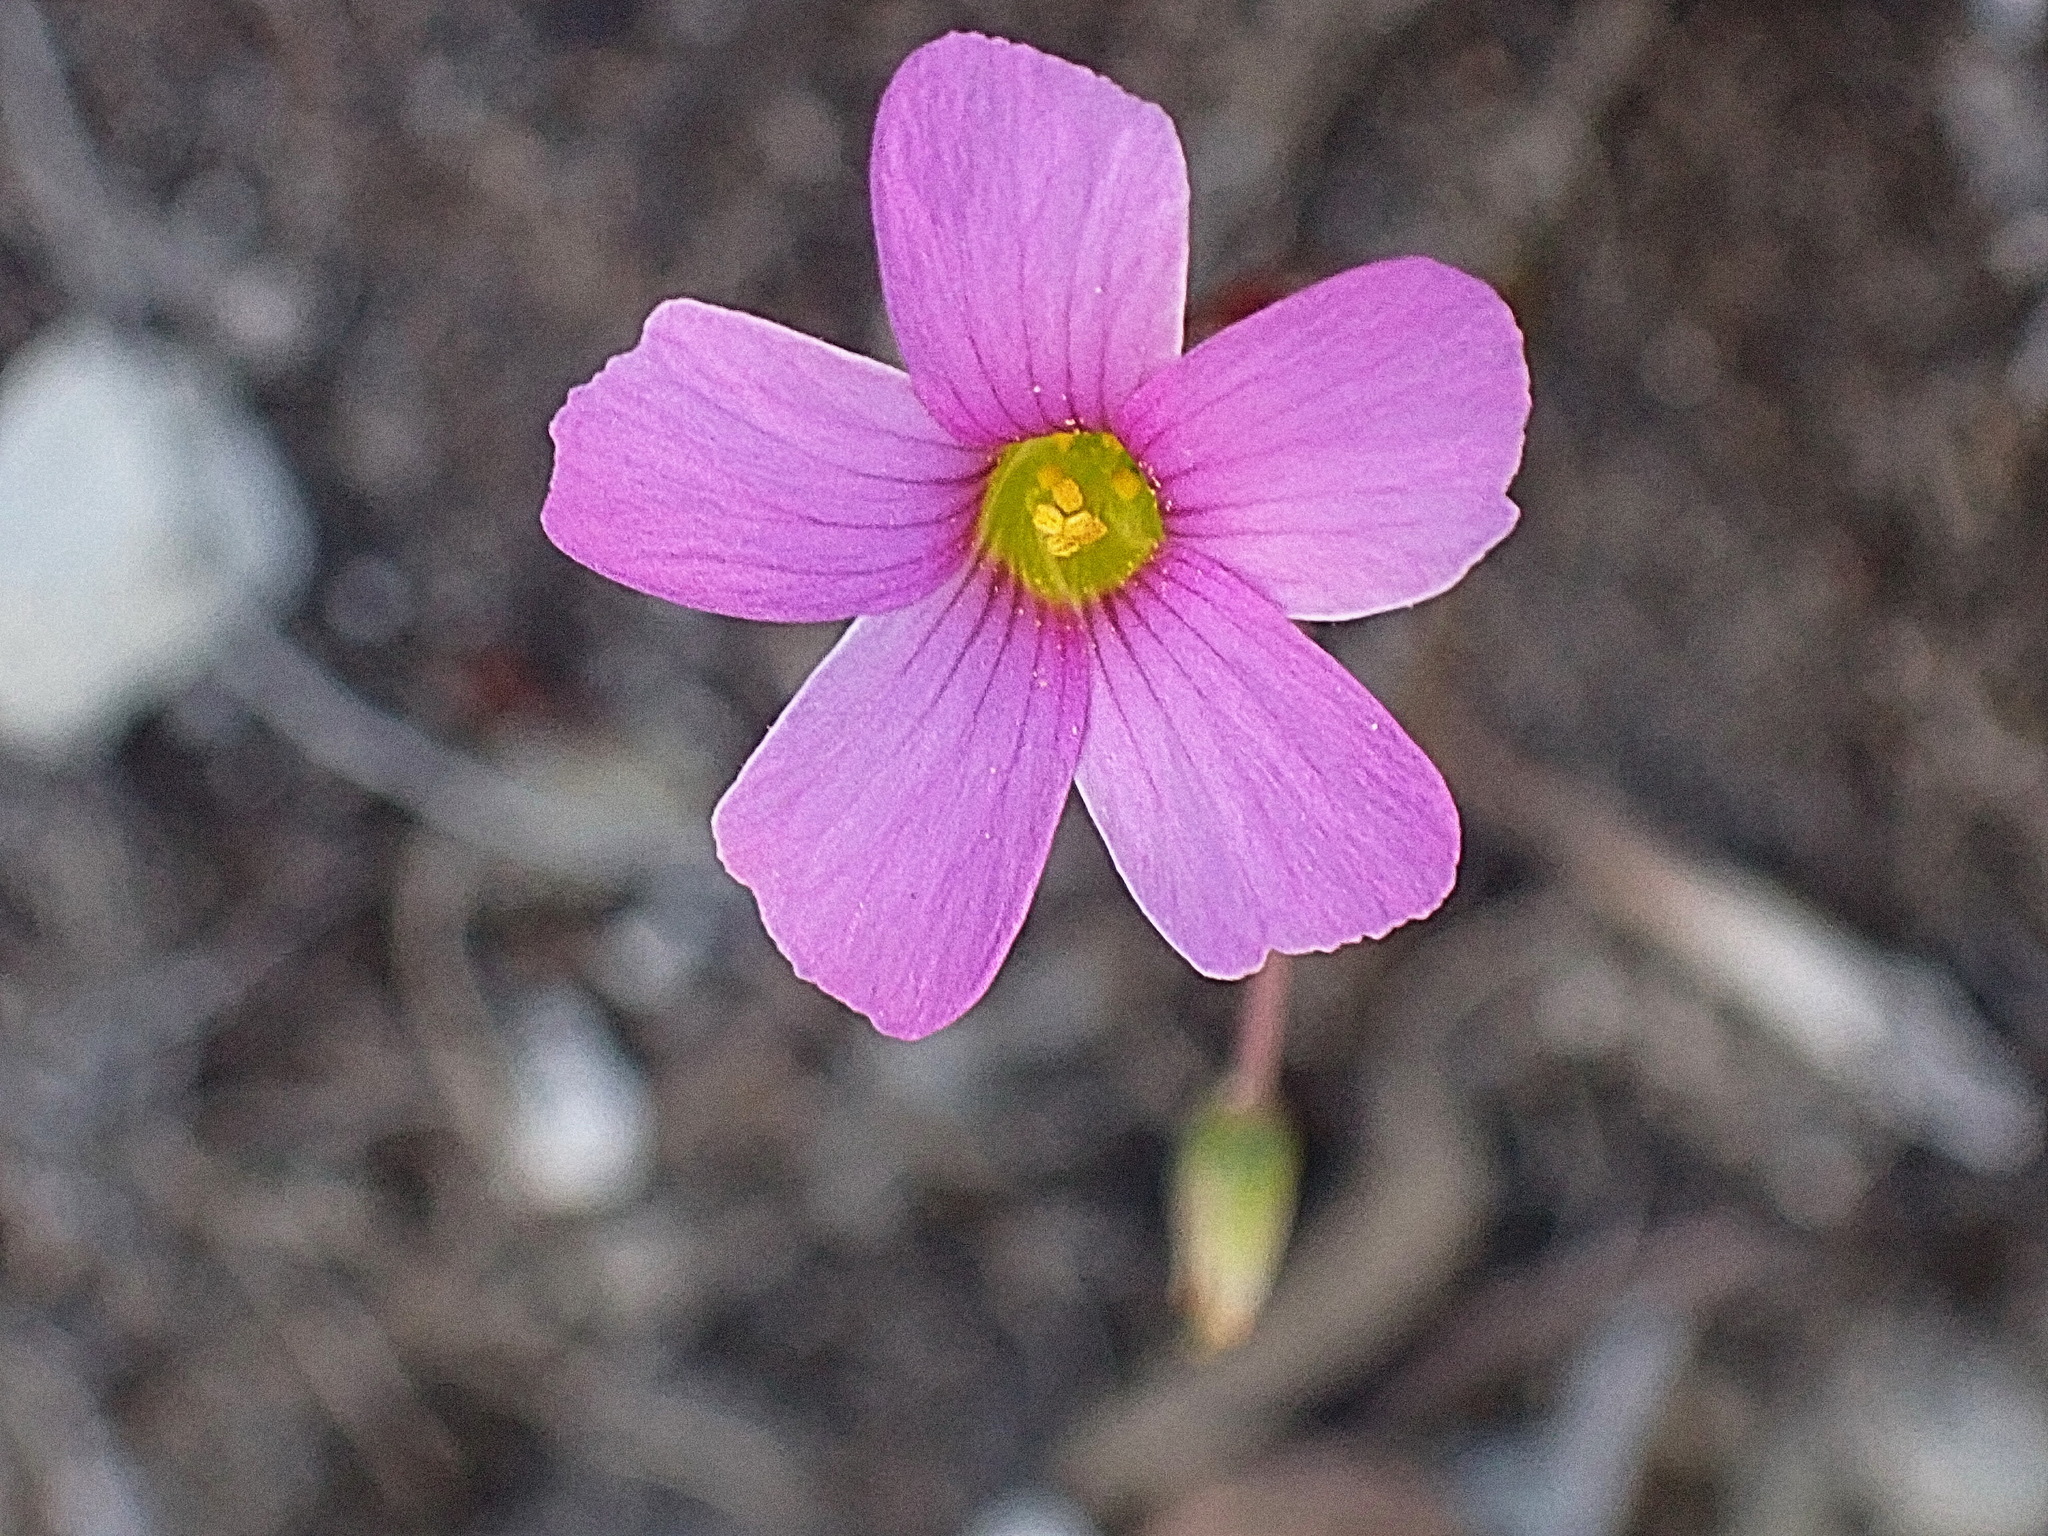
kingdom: Plantae
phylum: Tracheophyta
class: Magnoliopsida
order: Oxalidales
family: Oxalidaceae
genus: Oxalis
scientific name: Oxalis stellata
